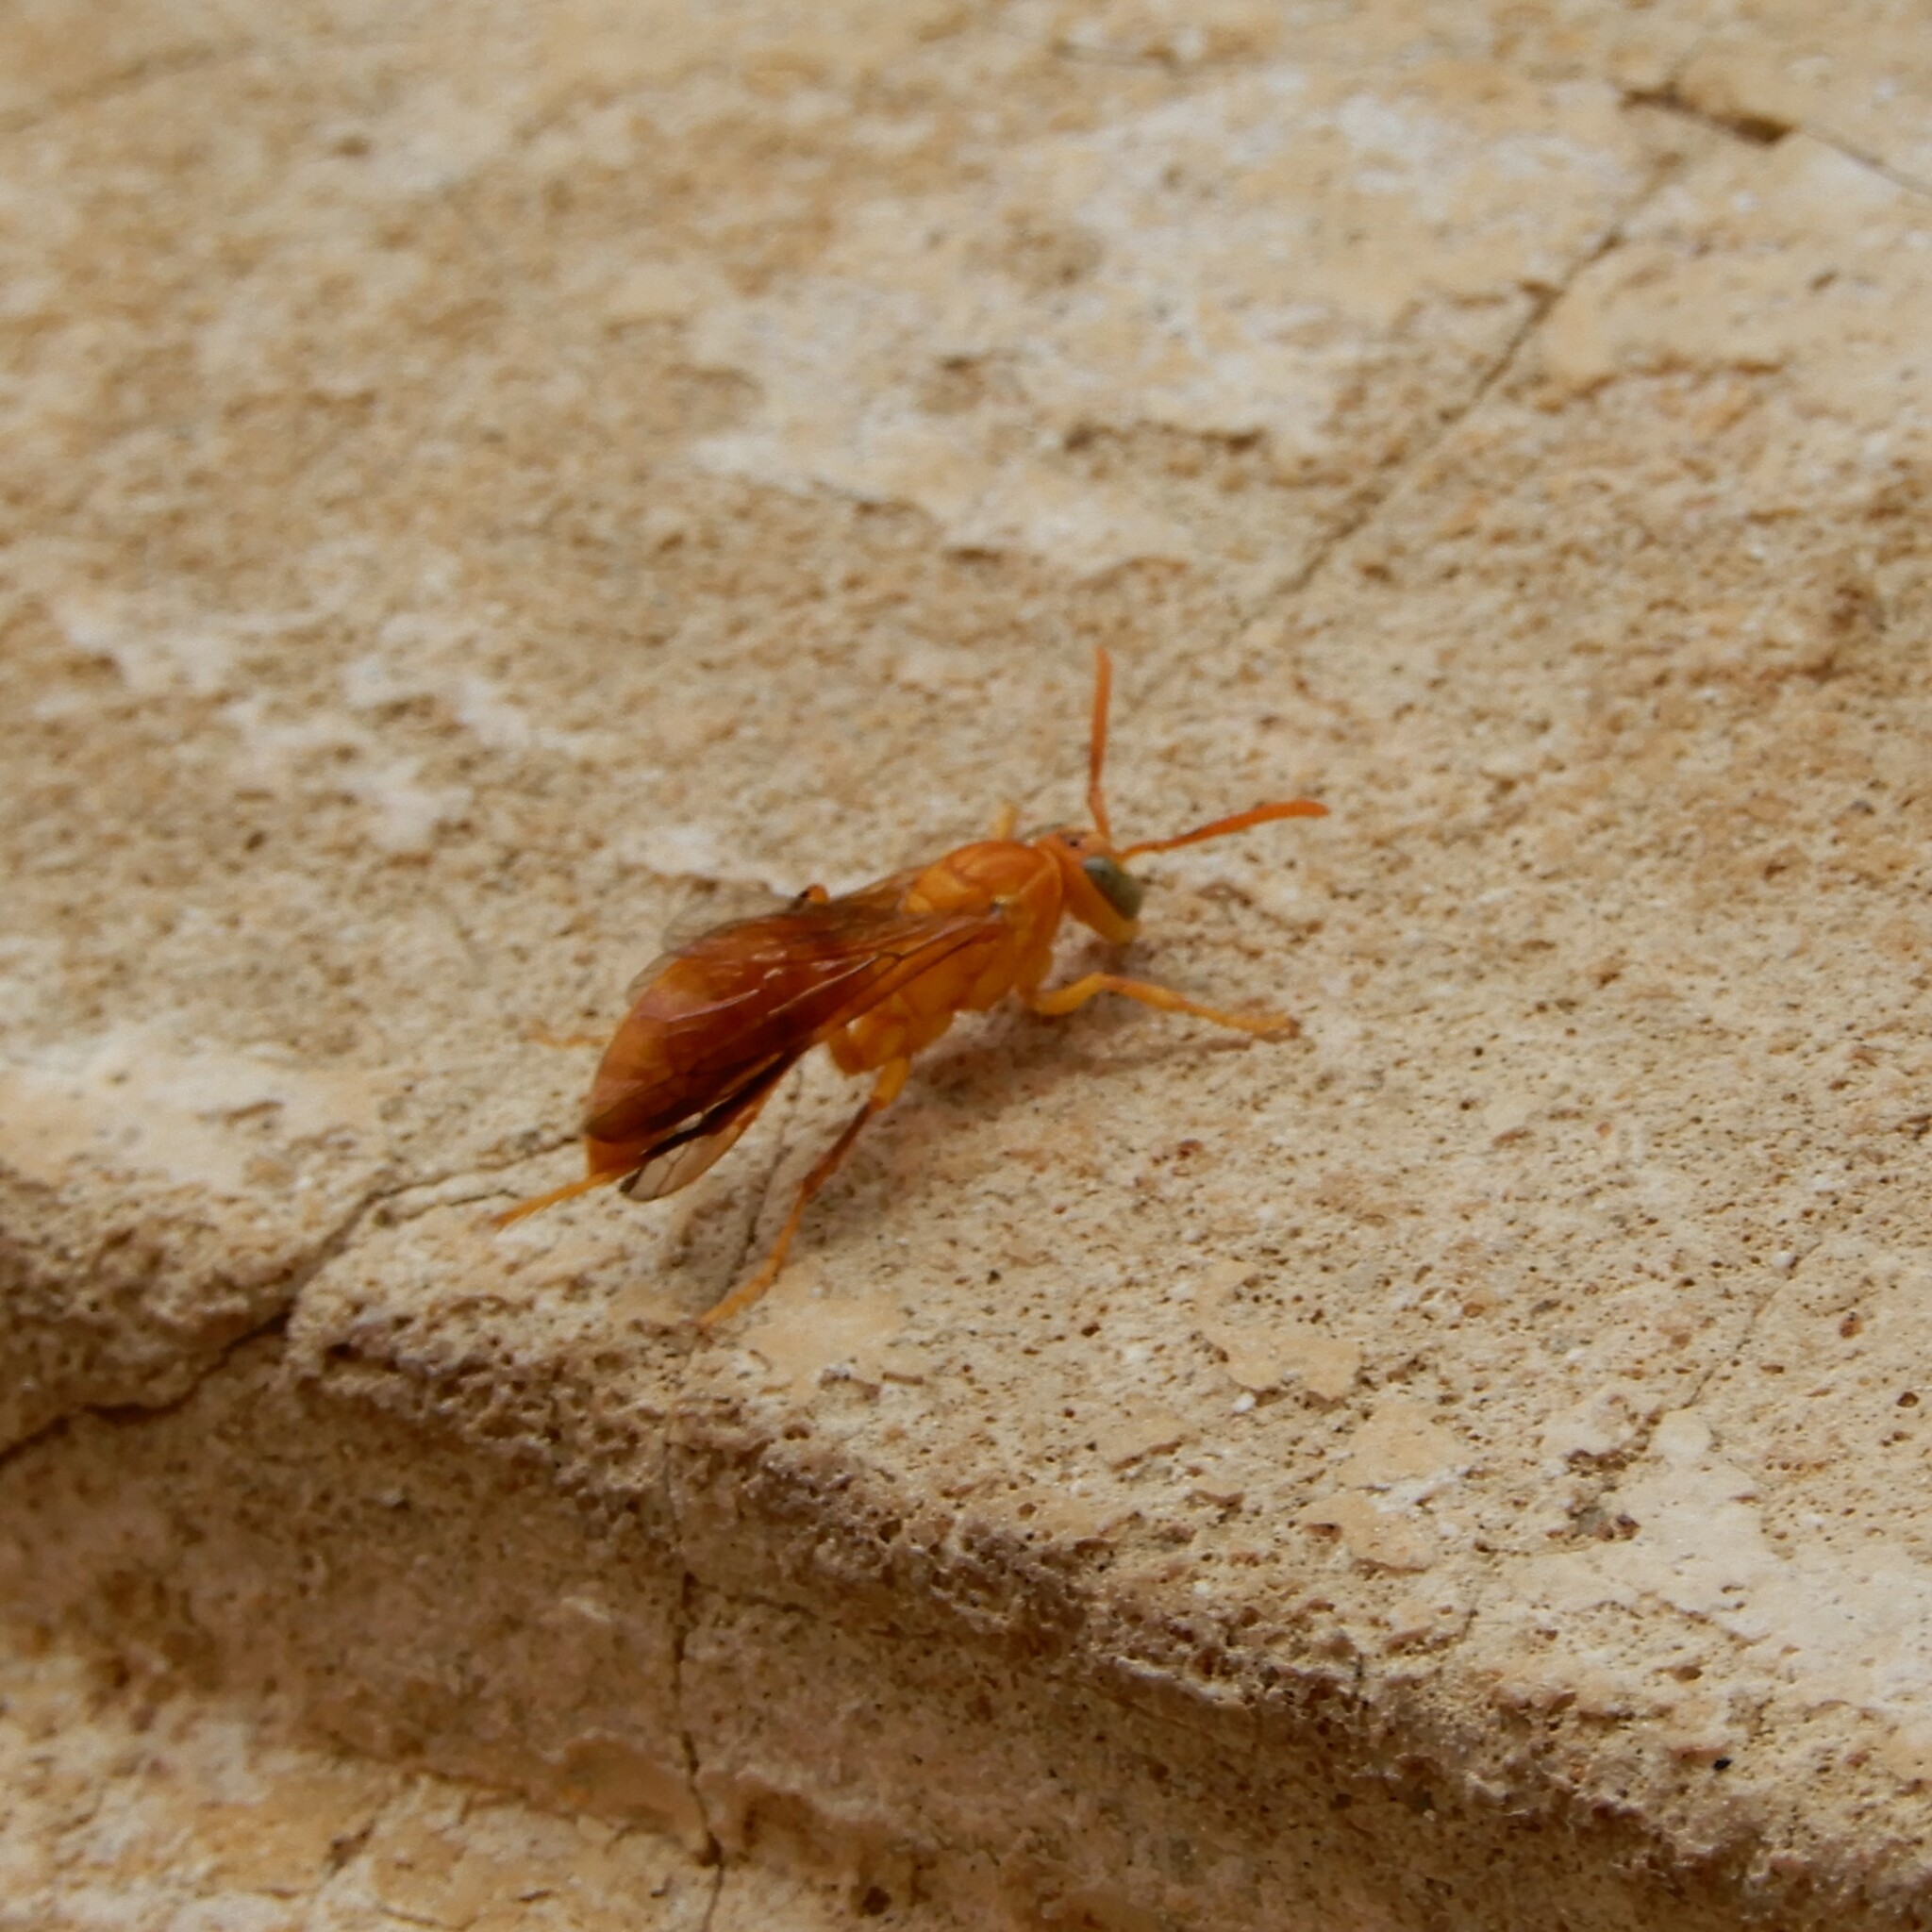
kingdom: Animalia
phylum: Arthropoda
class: Insecta
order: Hymenoptera
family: Eumenidae
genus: Polistes
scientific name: Polistes wattii
